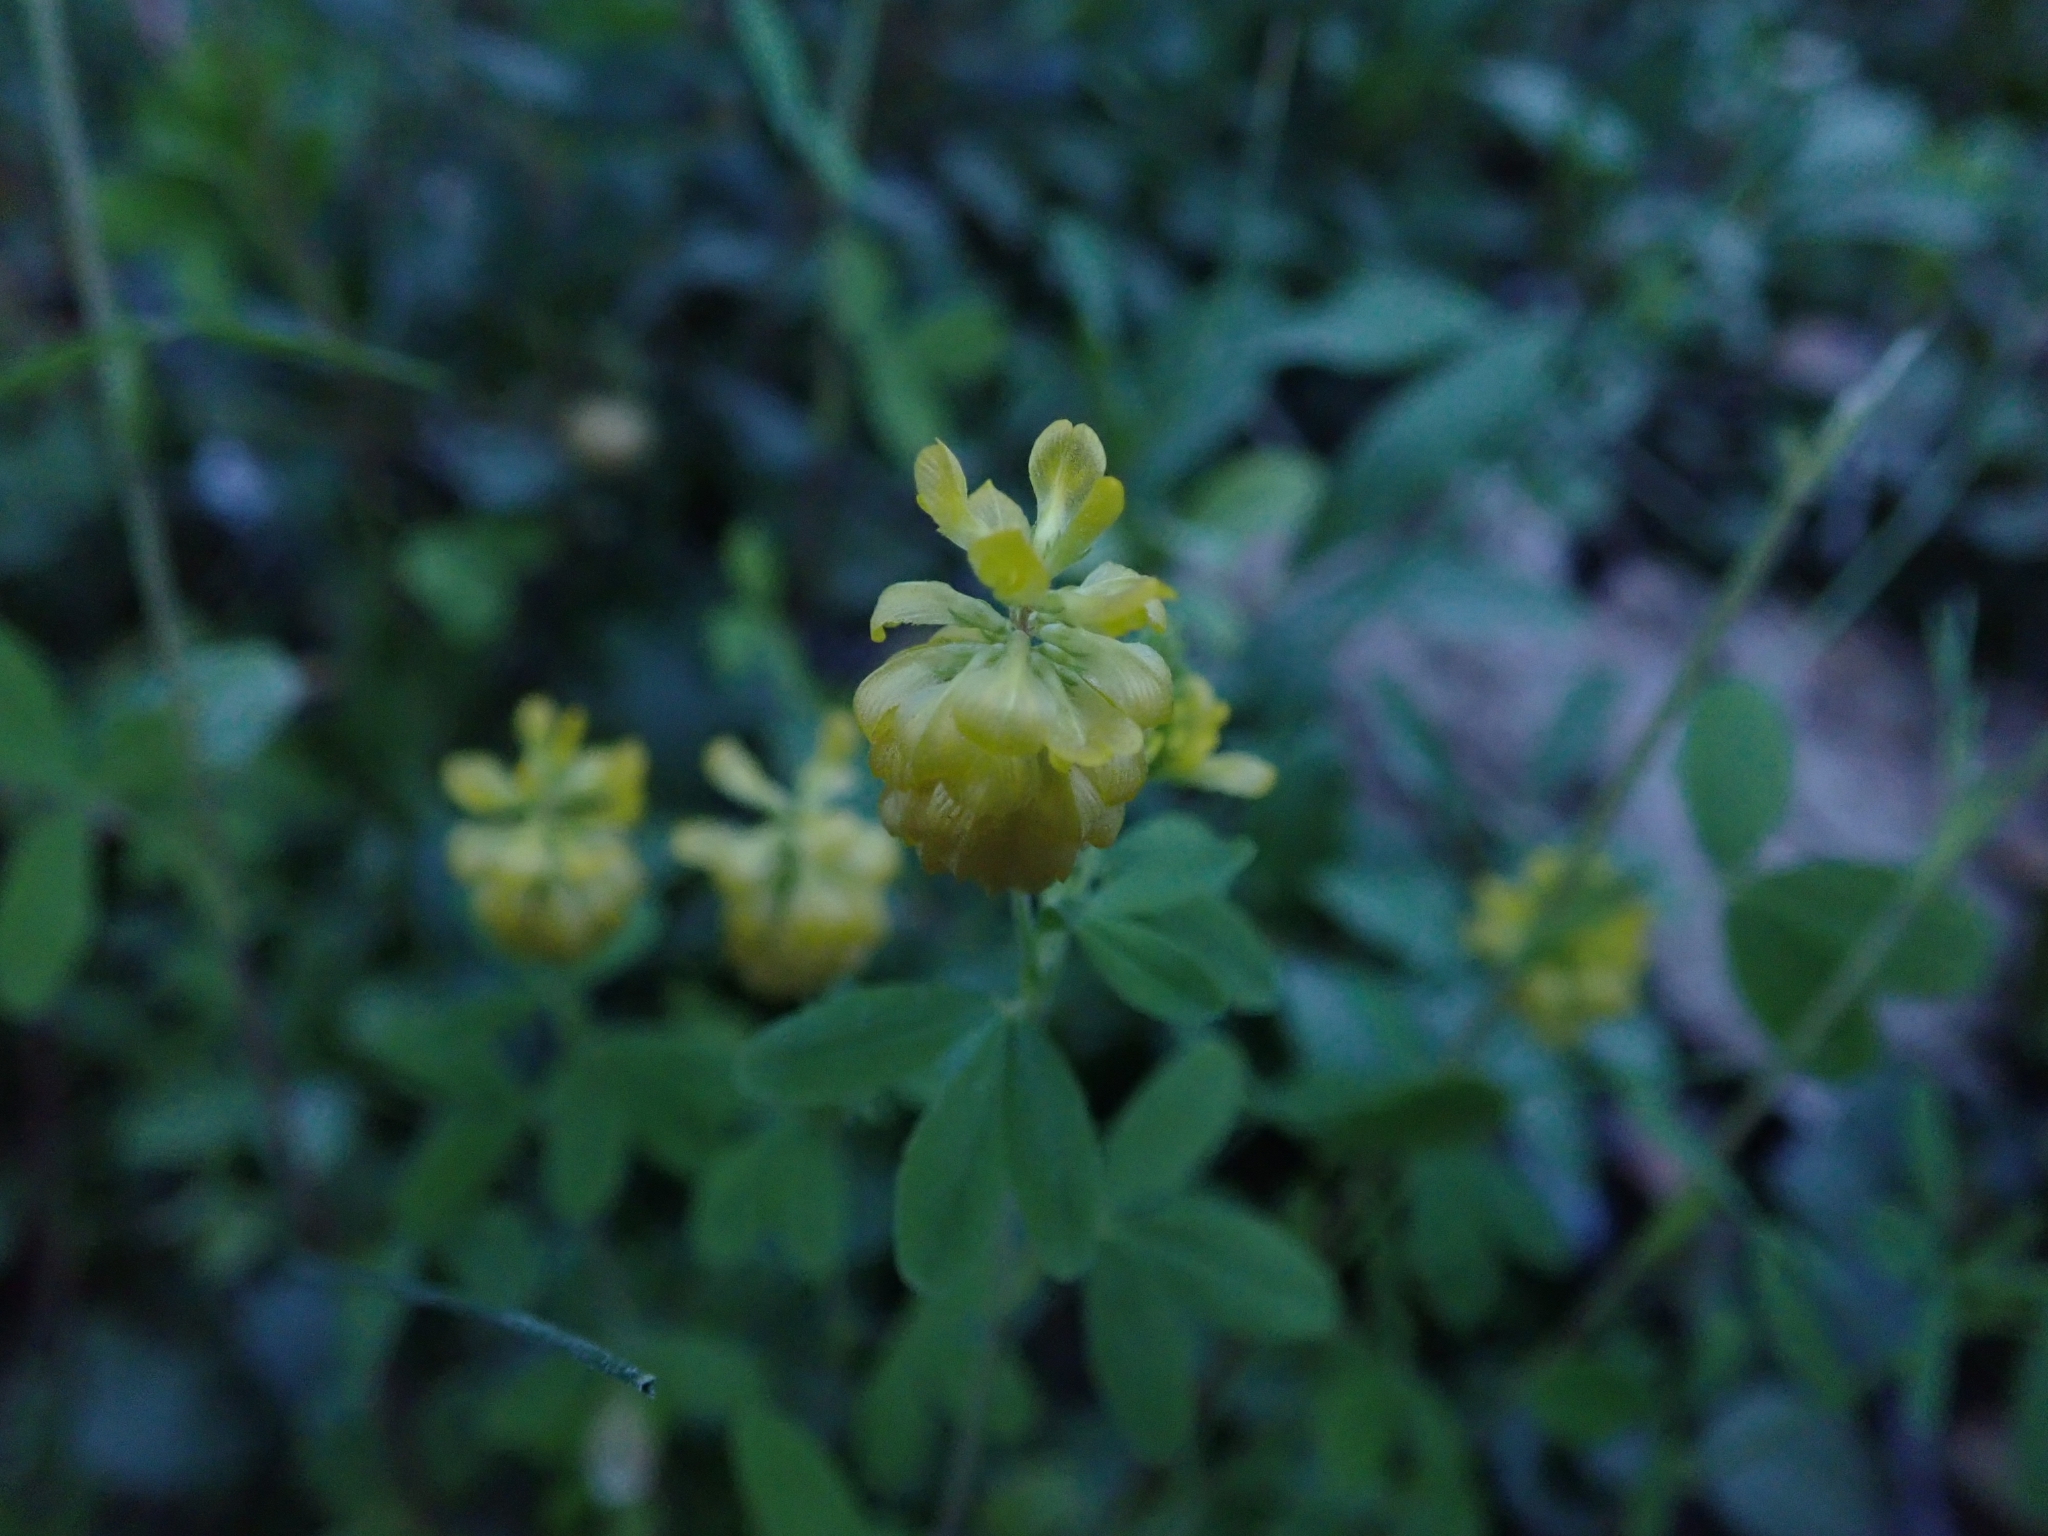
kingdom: Plantae
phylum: Tracheophyta
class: Magnoliopsida
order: Fabales
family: Fabaceae
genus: Trifolium
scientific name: Trifolium aureum
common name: Golden clover
